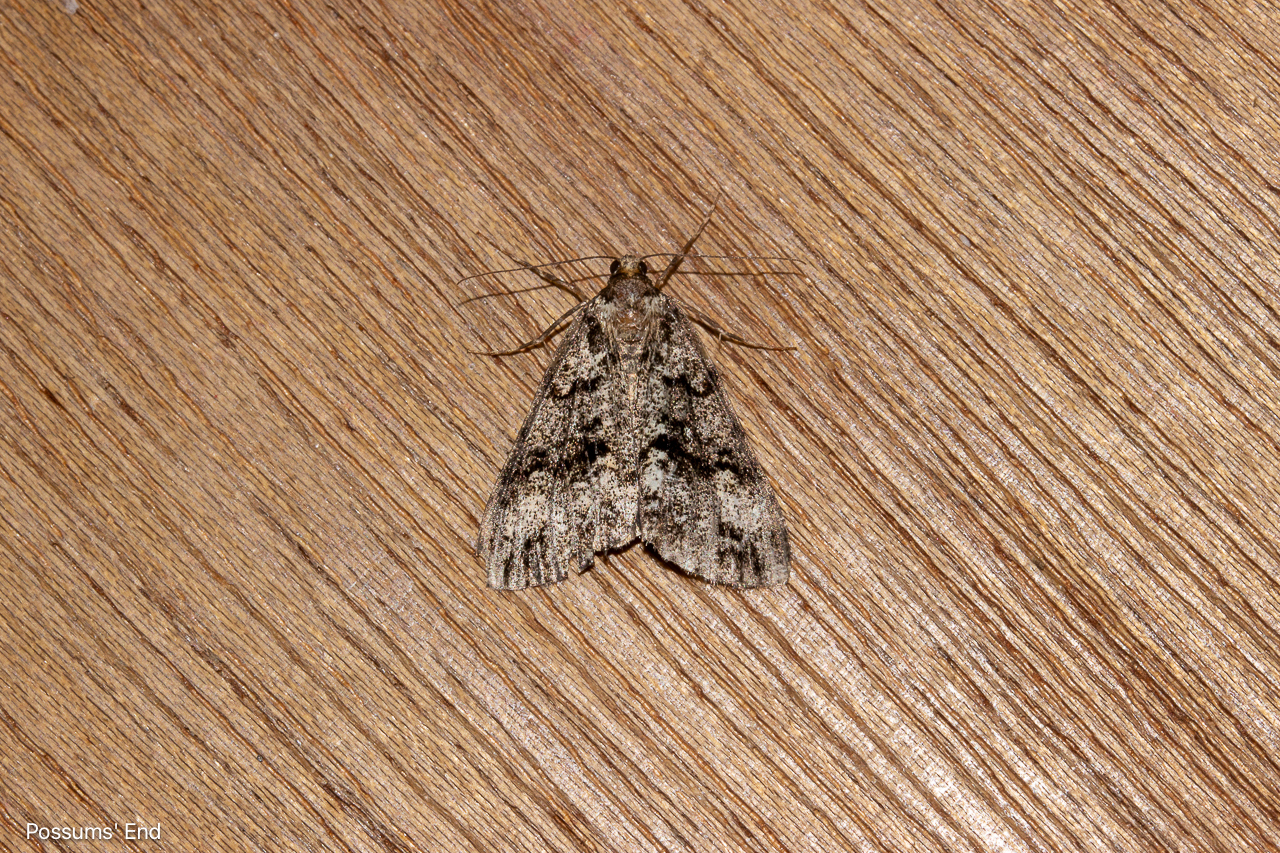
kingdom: Animalia
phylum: Arthropoda
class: Insecta
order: Lepidoptera
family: Geometridae
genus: Pseudocoremia
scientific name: Pseudocoremia leucelaea
